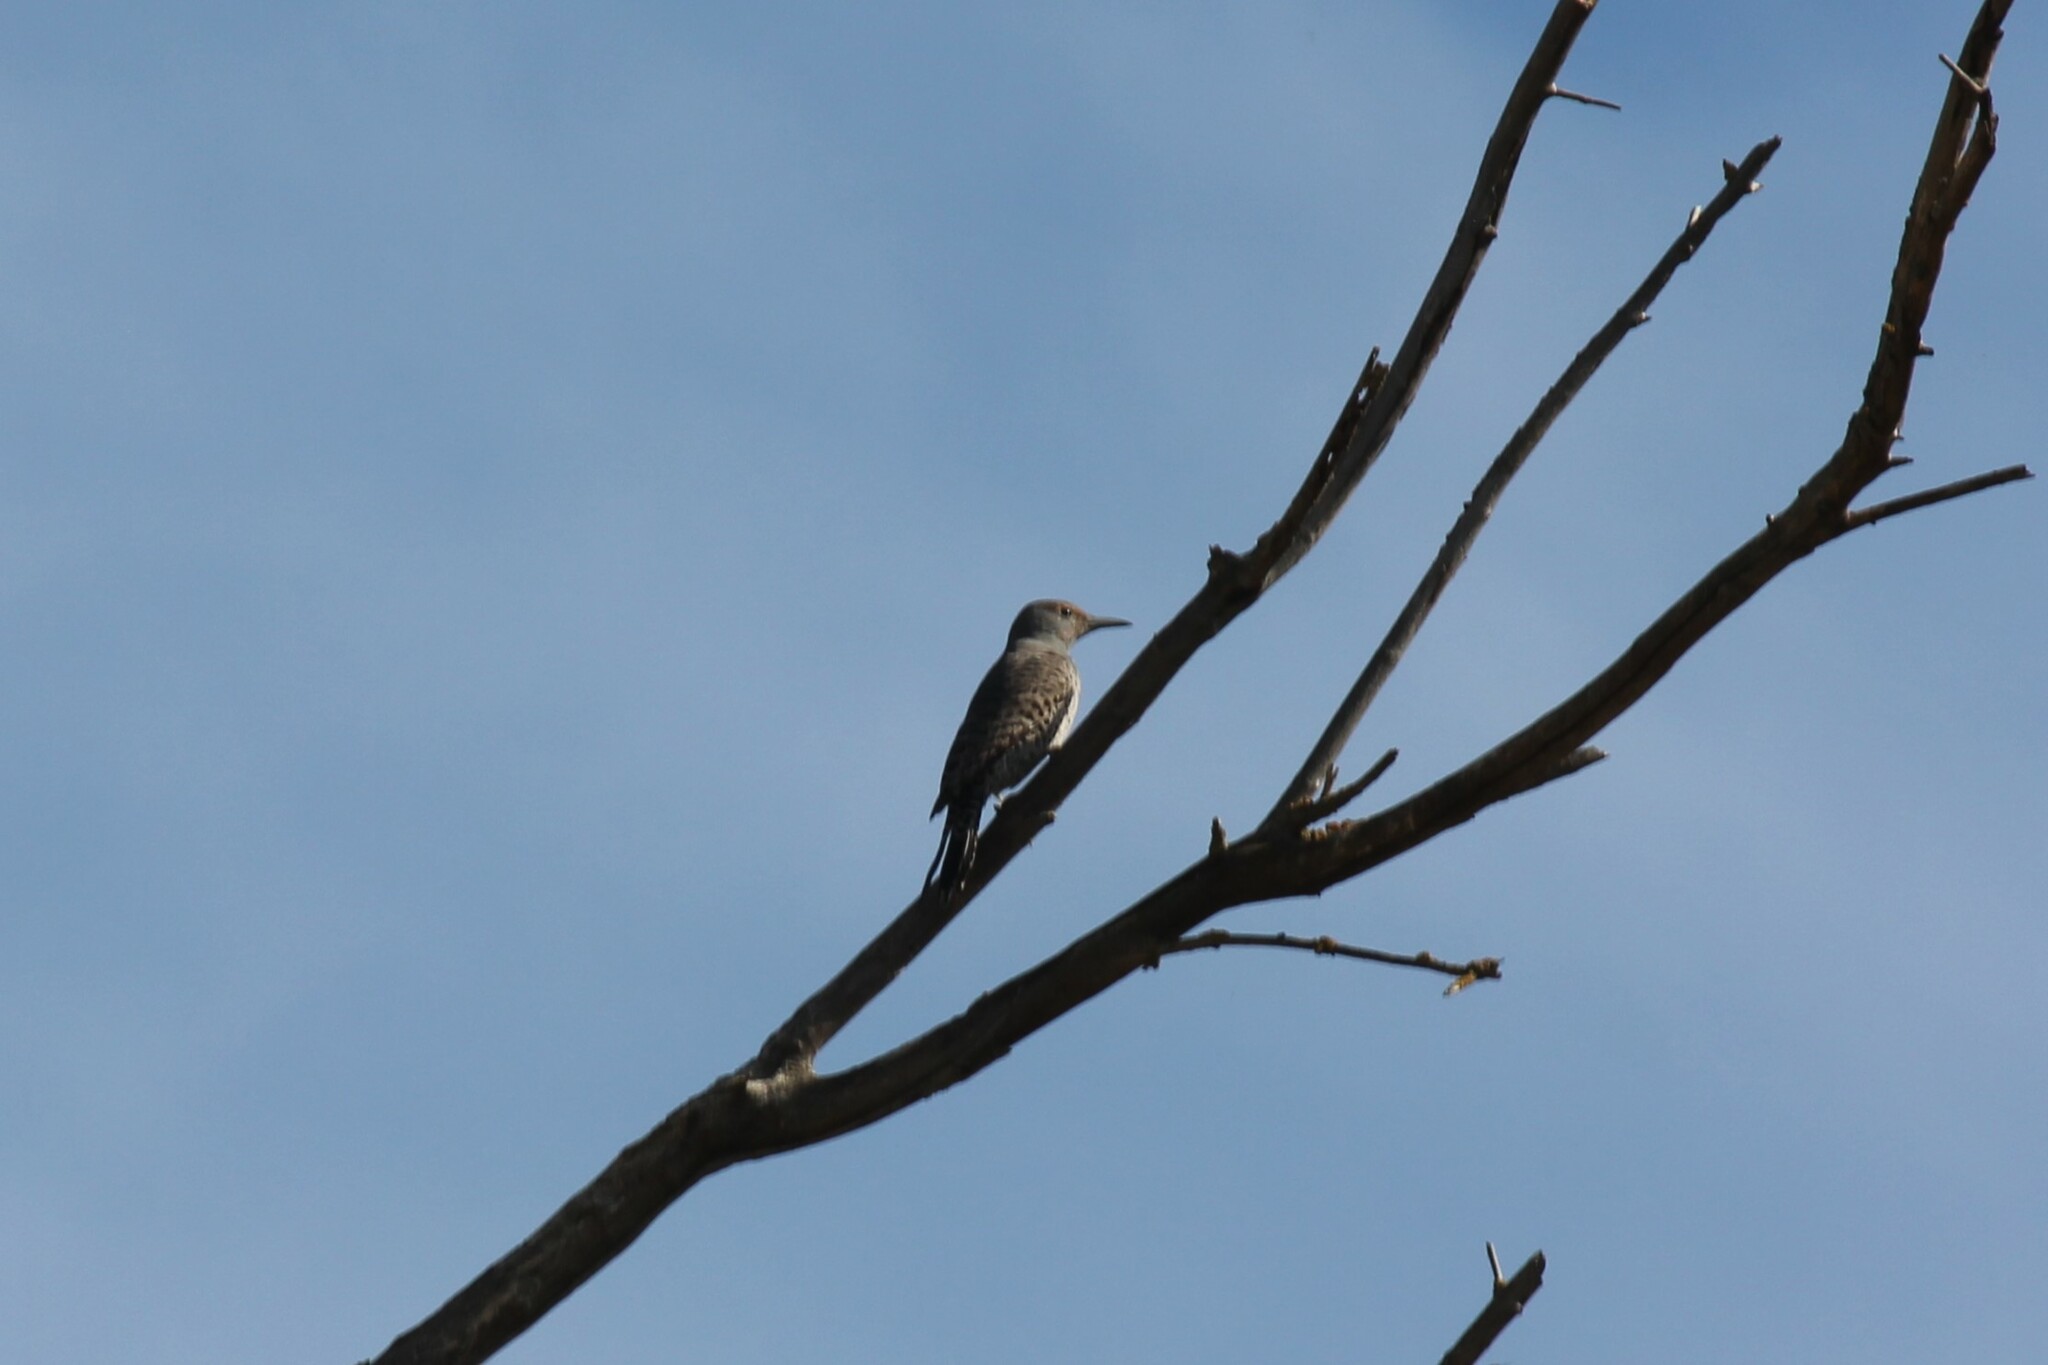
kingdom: Animalia
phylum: Chordata
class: Aves
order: Piciformes
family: Picidae
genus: Colaptes
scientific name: Colaptes auratus
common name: Northern flicker
